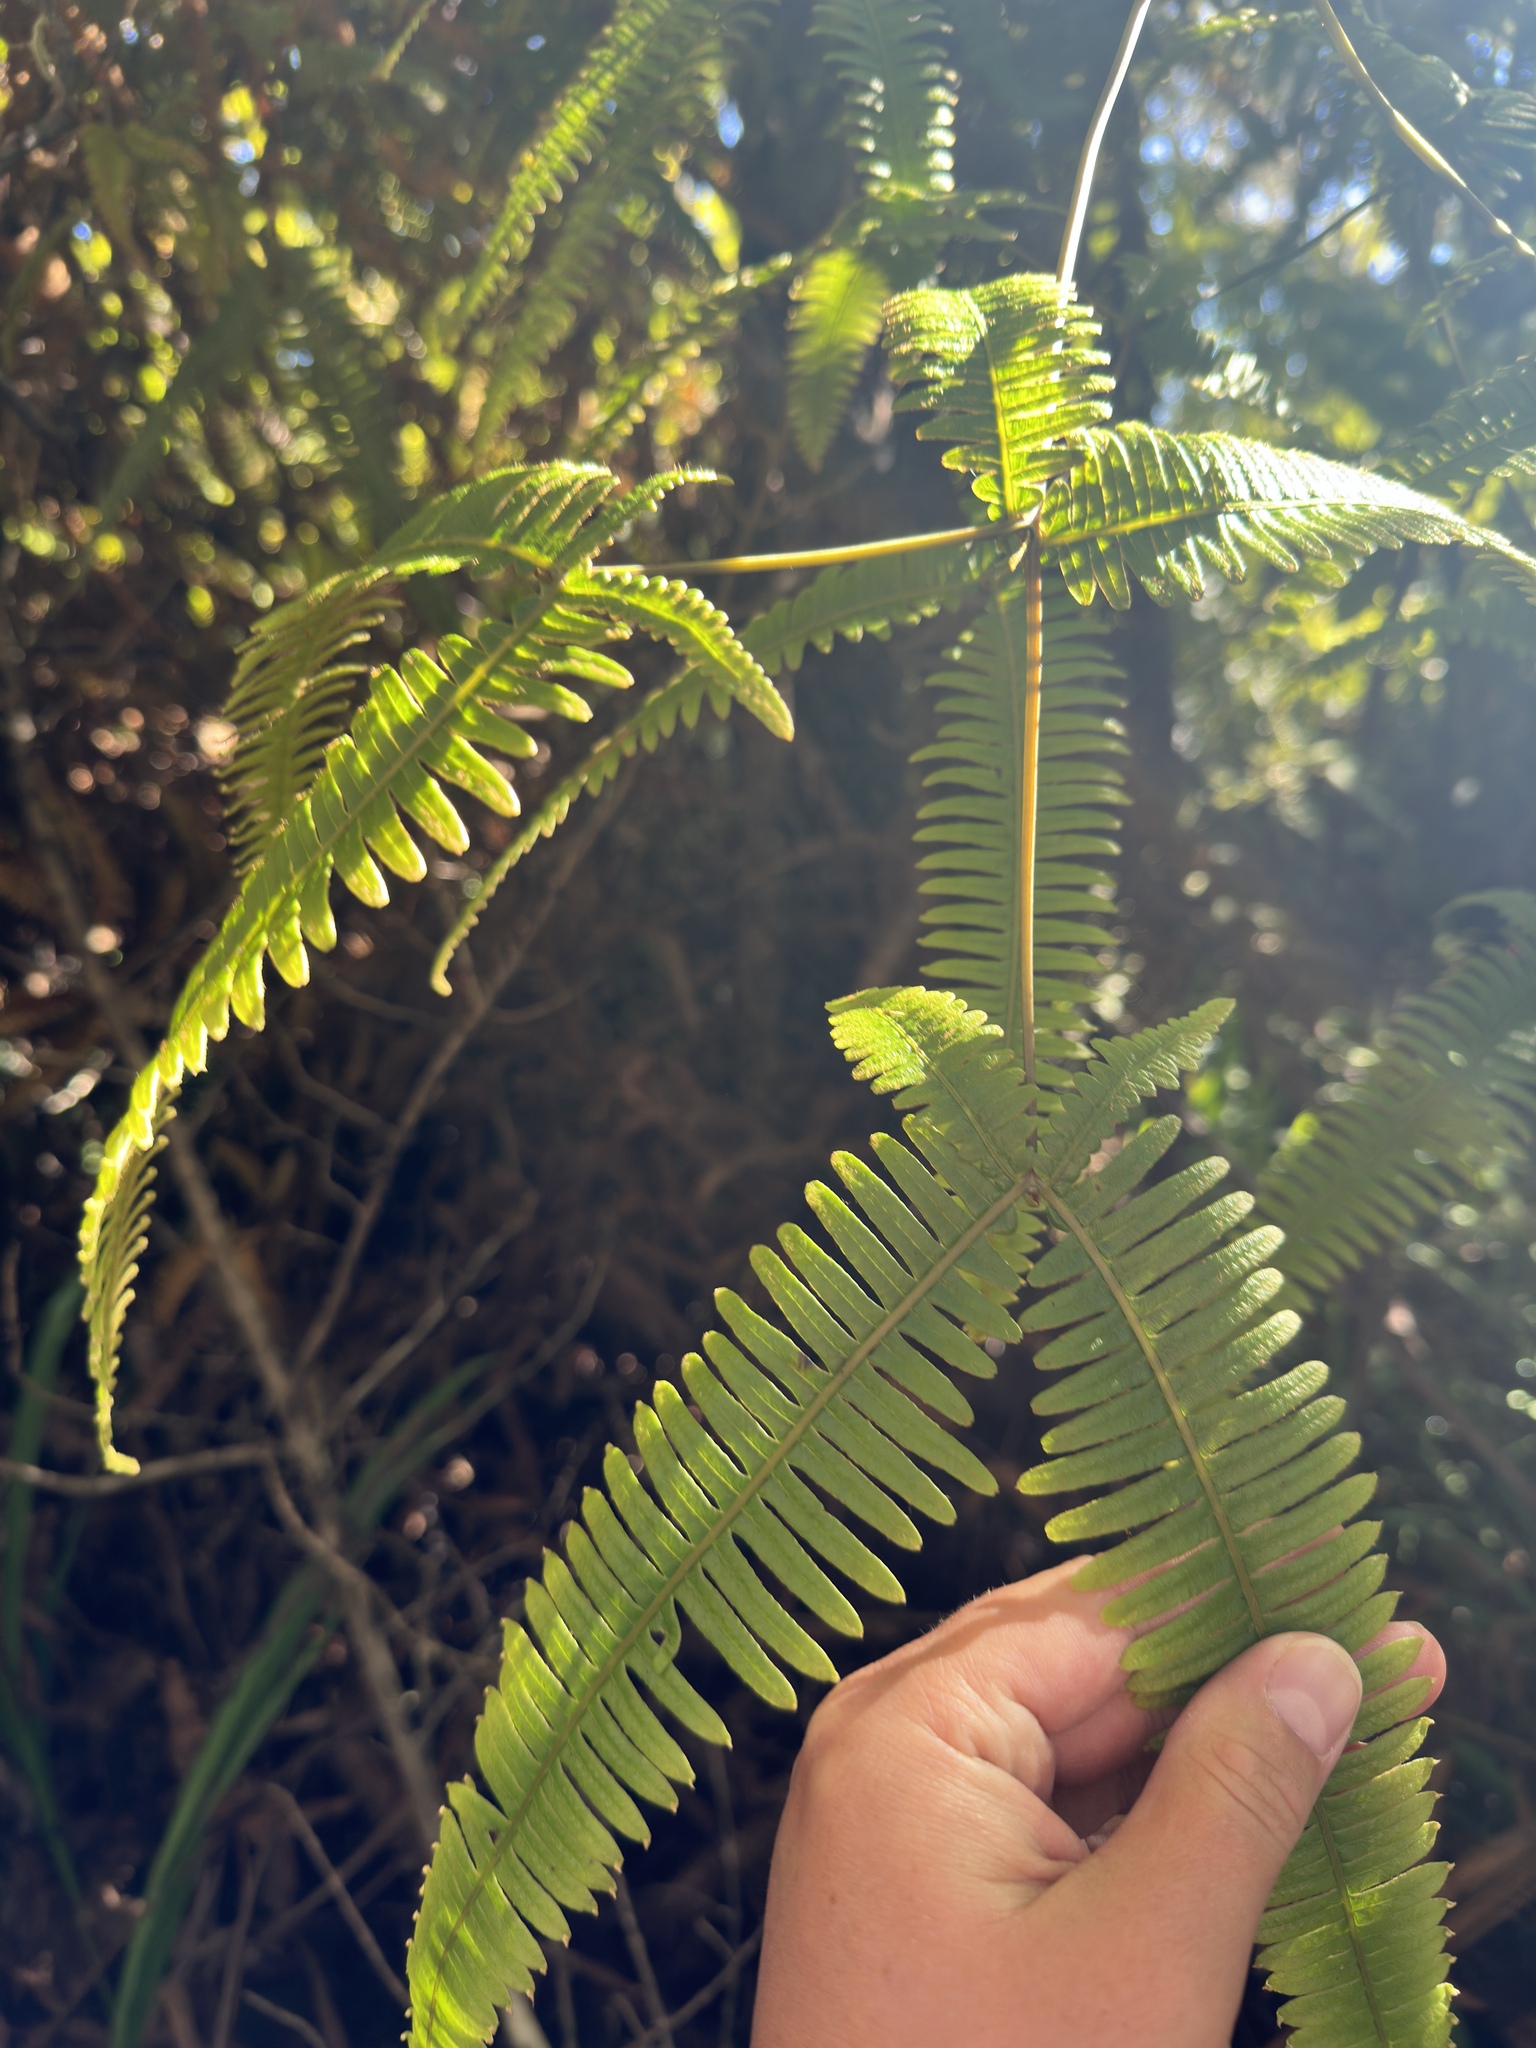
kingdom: Plantae
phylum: Tracheophyta
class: Polypodiopsida
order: Gleicheniales
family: Gleicheniaceae
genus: Dicranopteris
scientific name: Dicranopteris linearis
